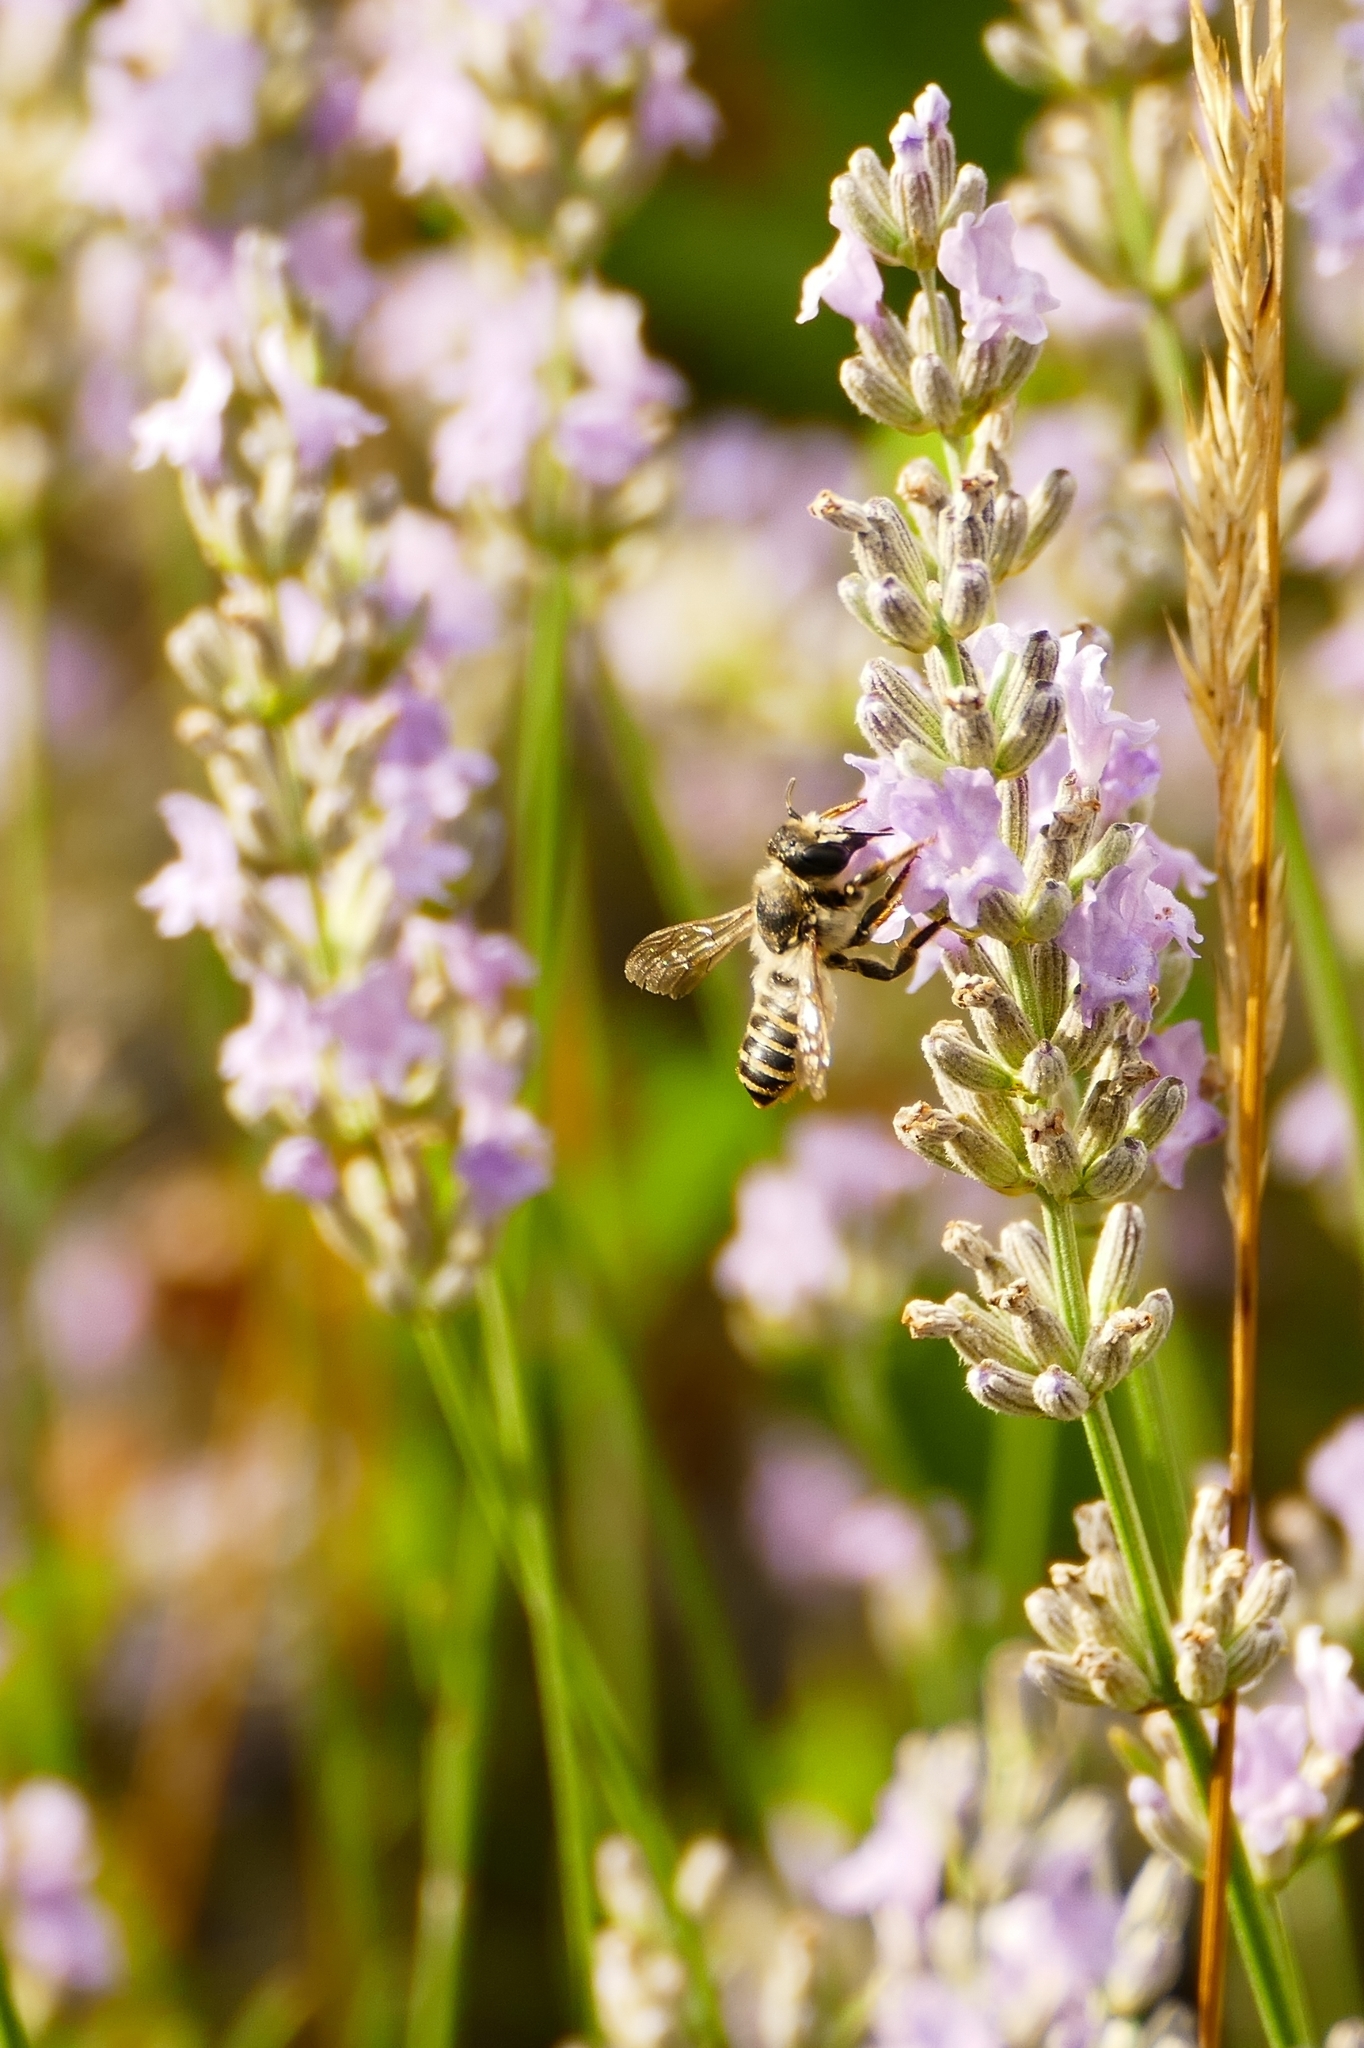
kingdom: Animalia
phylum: Arthropoda
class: Insecta
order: Hymenoptera
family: Megachilidae
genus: Megachile
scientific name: Megachile ericetorum
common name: Leafcutter bee
